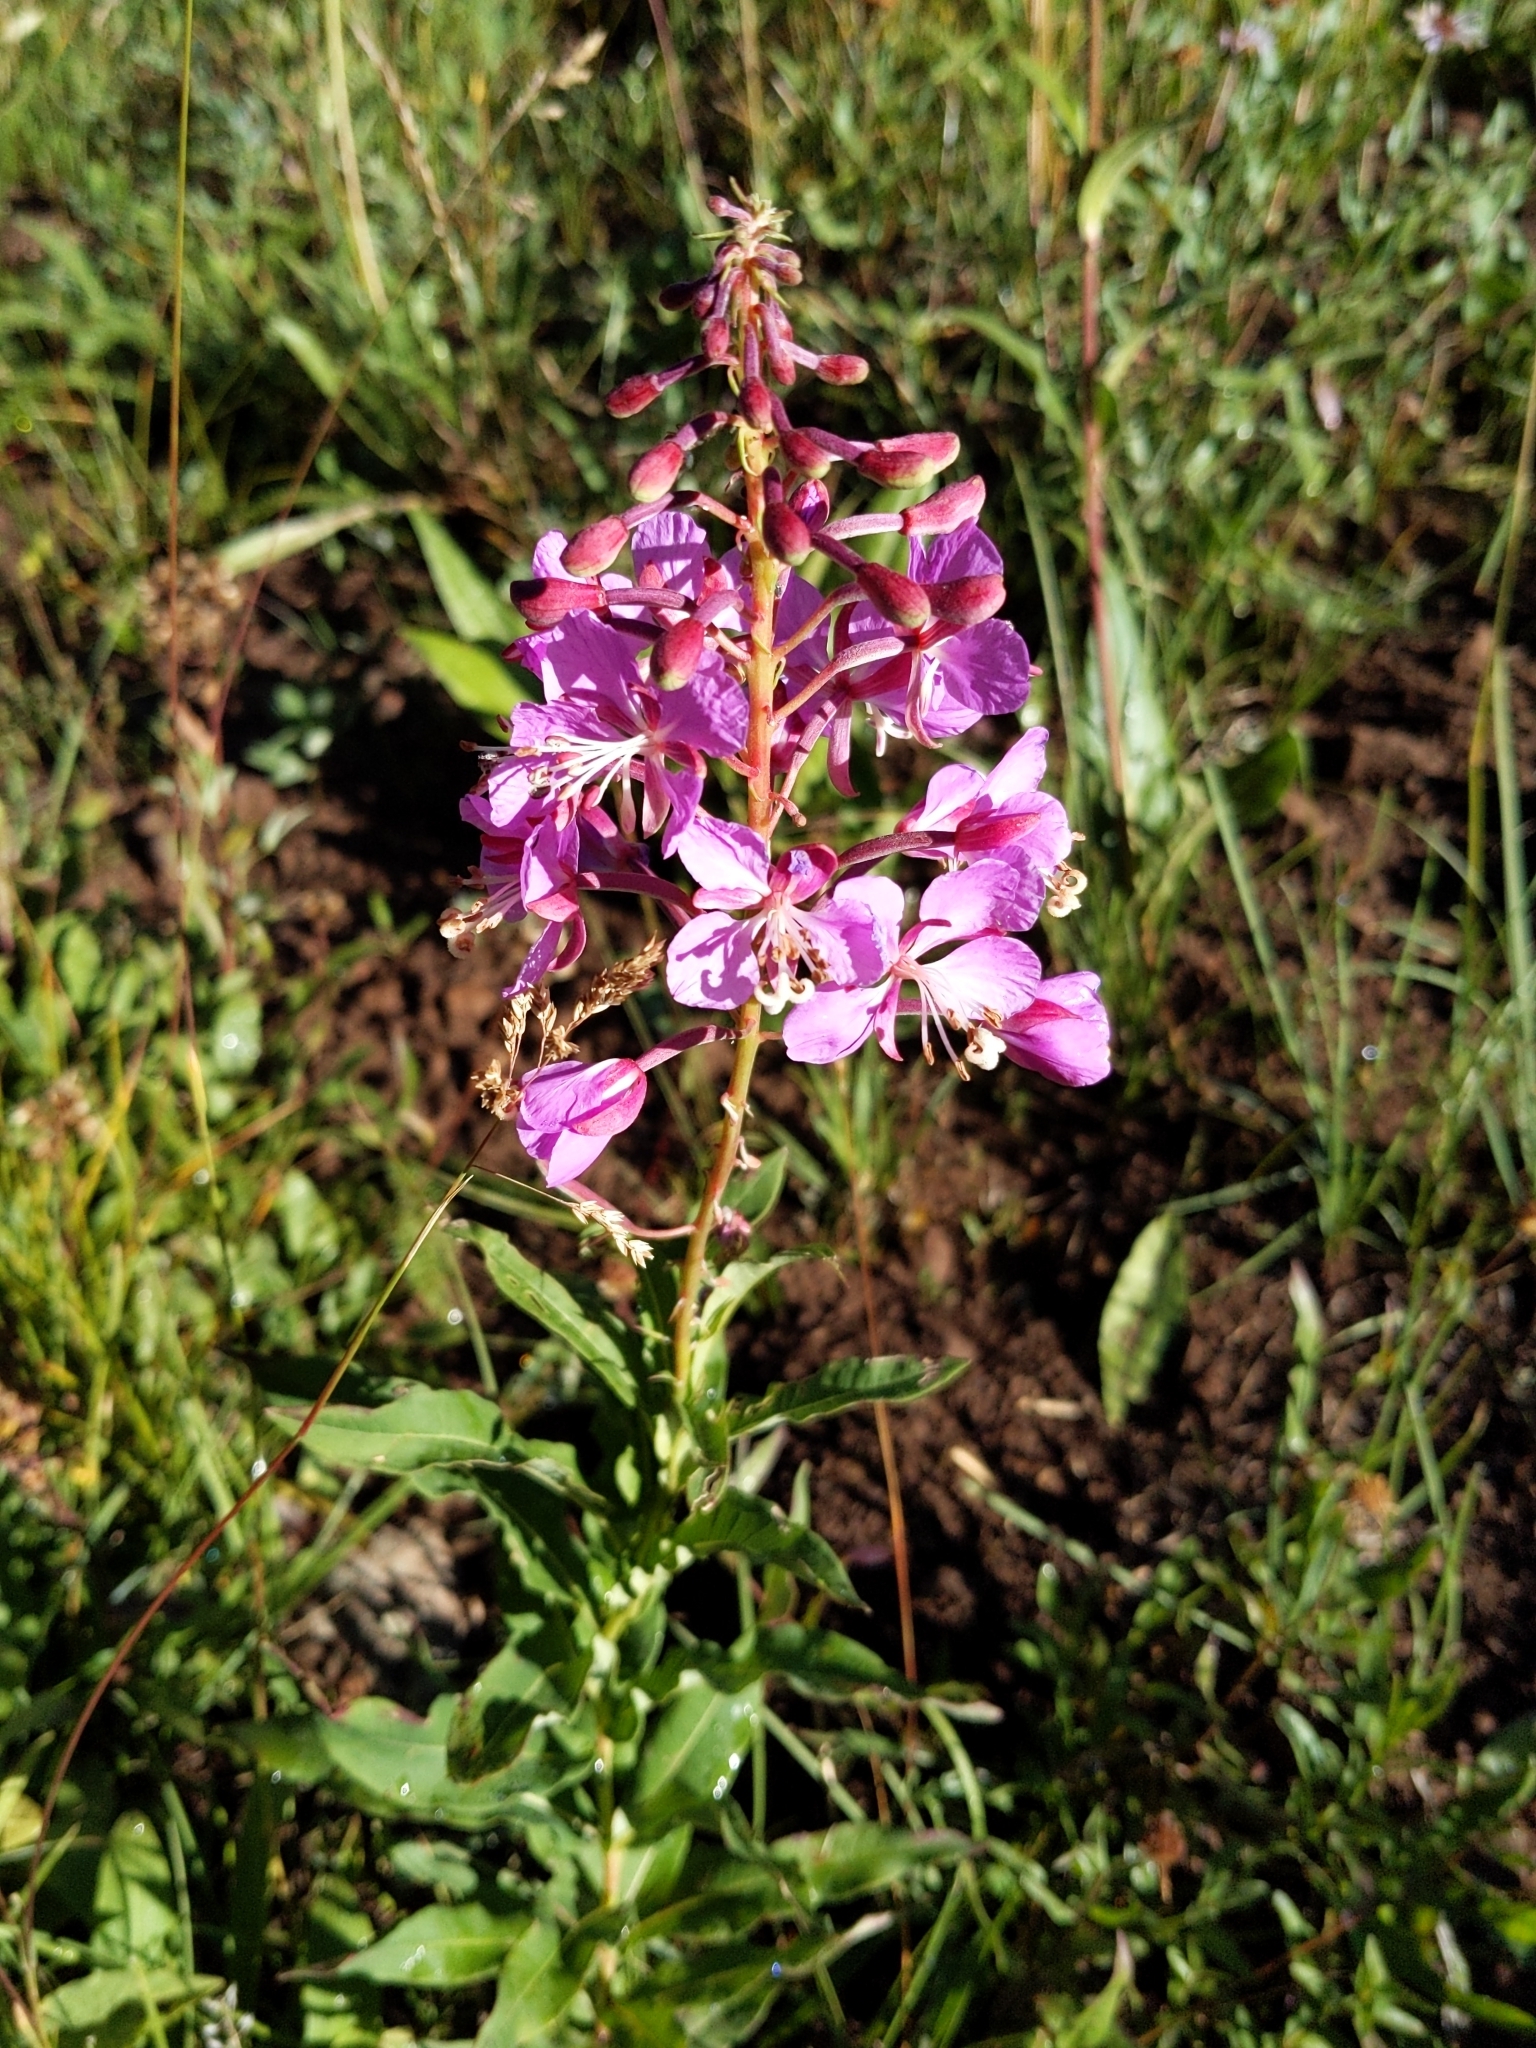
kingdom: Plantae
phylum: Tracheophyta
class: Magnoliopsida
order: Myrtales
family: Onagraceae
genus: Chamaenerion
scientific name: Chamaenerion angustifolium
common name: Fireweed
